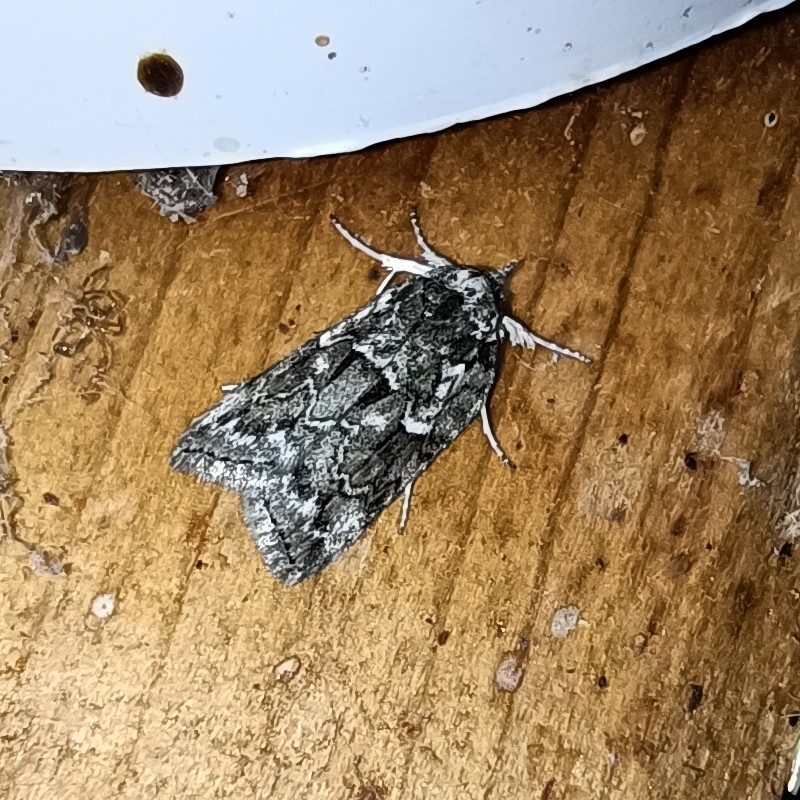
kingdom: Animalia
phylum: Arthropoda
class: Insecta
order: Lepidoptera
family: Nolidae
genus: Nycteola
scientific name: Nycteola degenerana
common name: Swallow nycteoline
